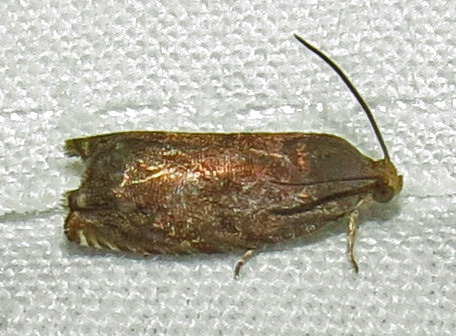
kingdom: Animalia
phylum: Arthropoda
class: Insecta
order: Lepidoptera
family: Tortricidae
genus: Cydia
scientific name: Cydia caryana
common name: Hickory shuckworm moth
